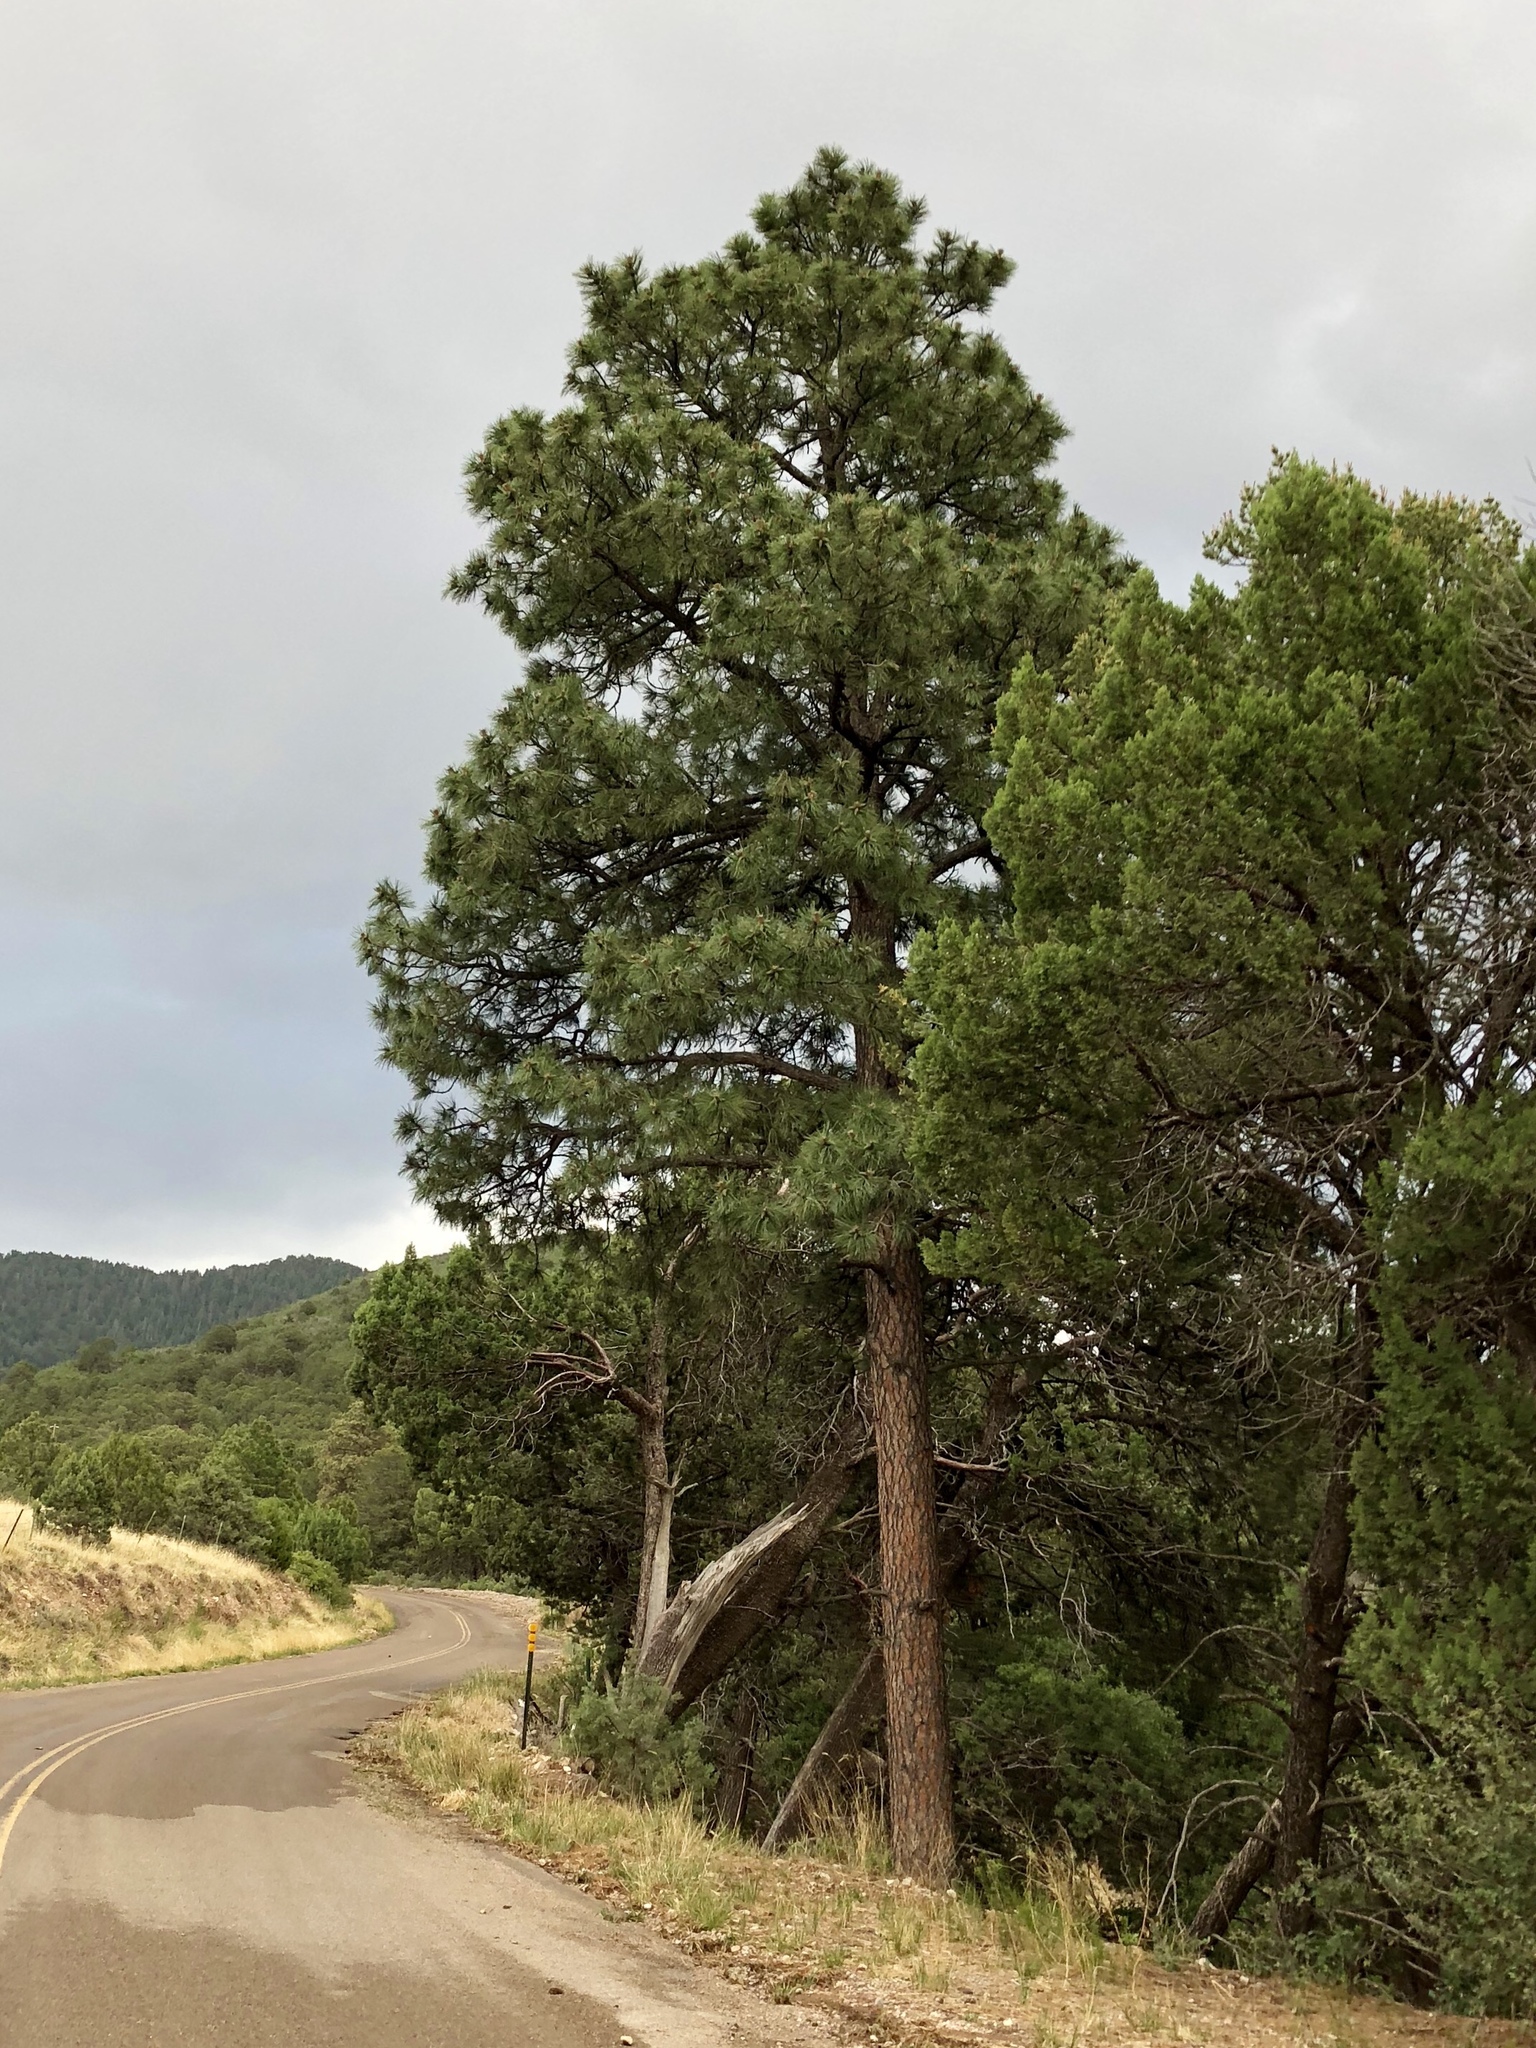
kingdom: Plantae
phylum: Tracheophyta
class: Pinopsida
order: Pinales
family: Pinaceae
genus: Pinus
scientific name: Pinus ponderosa
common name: Western yellow-pine
